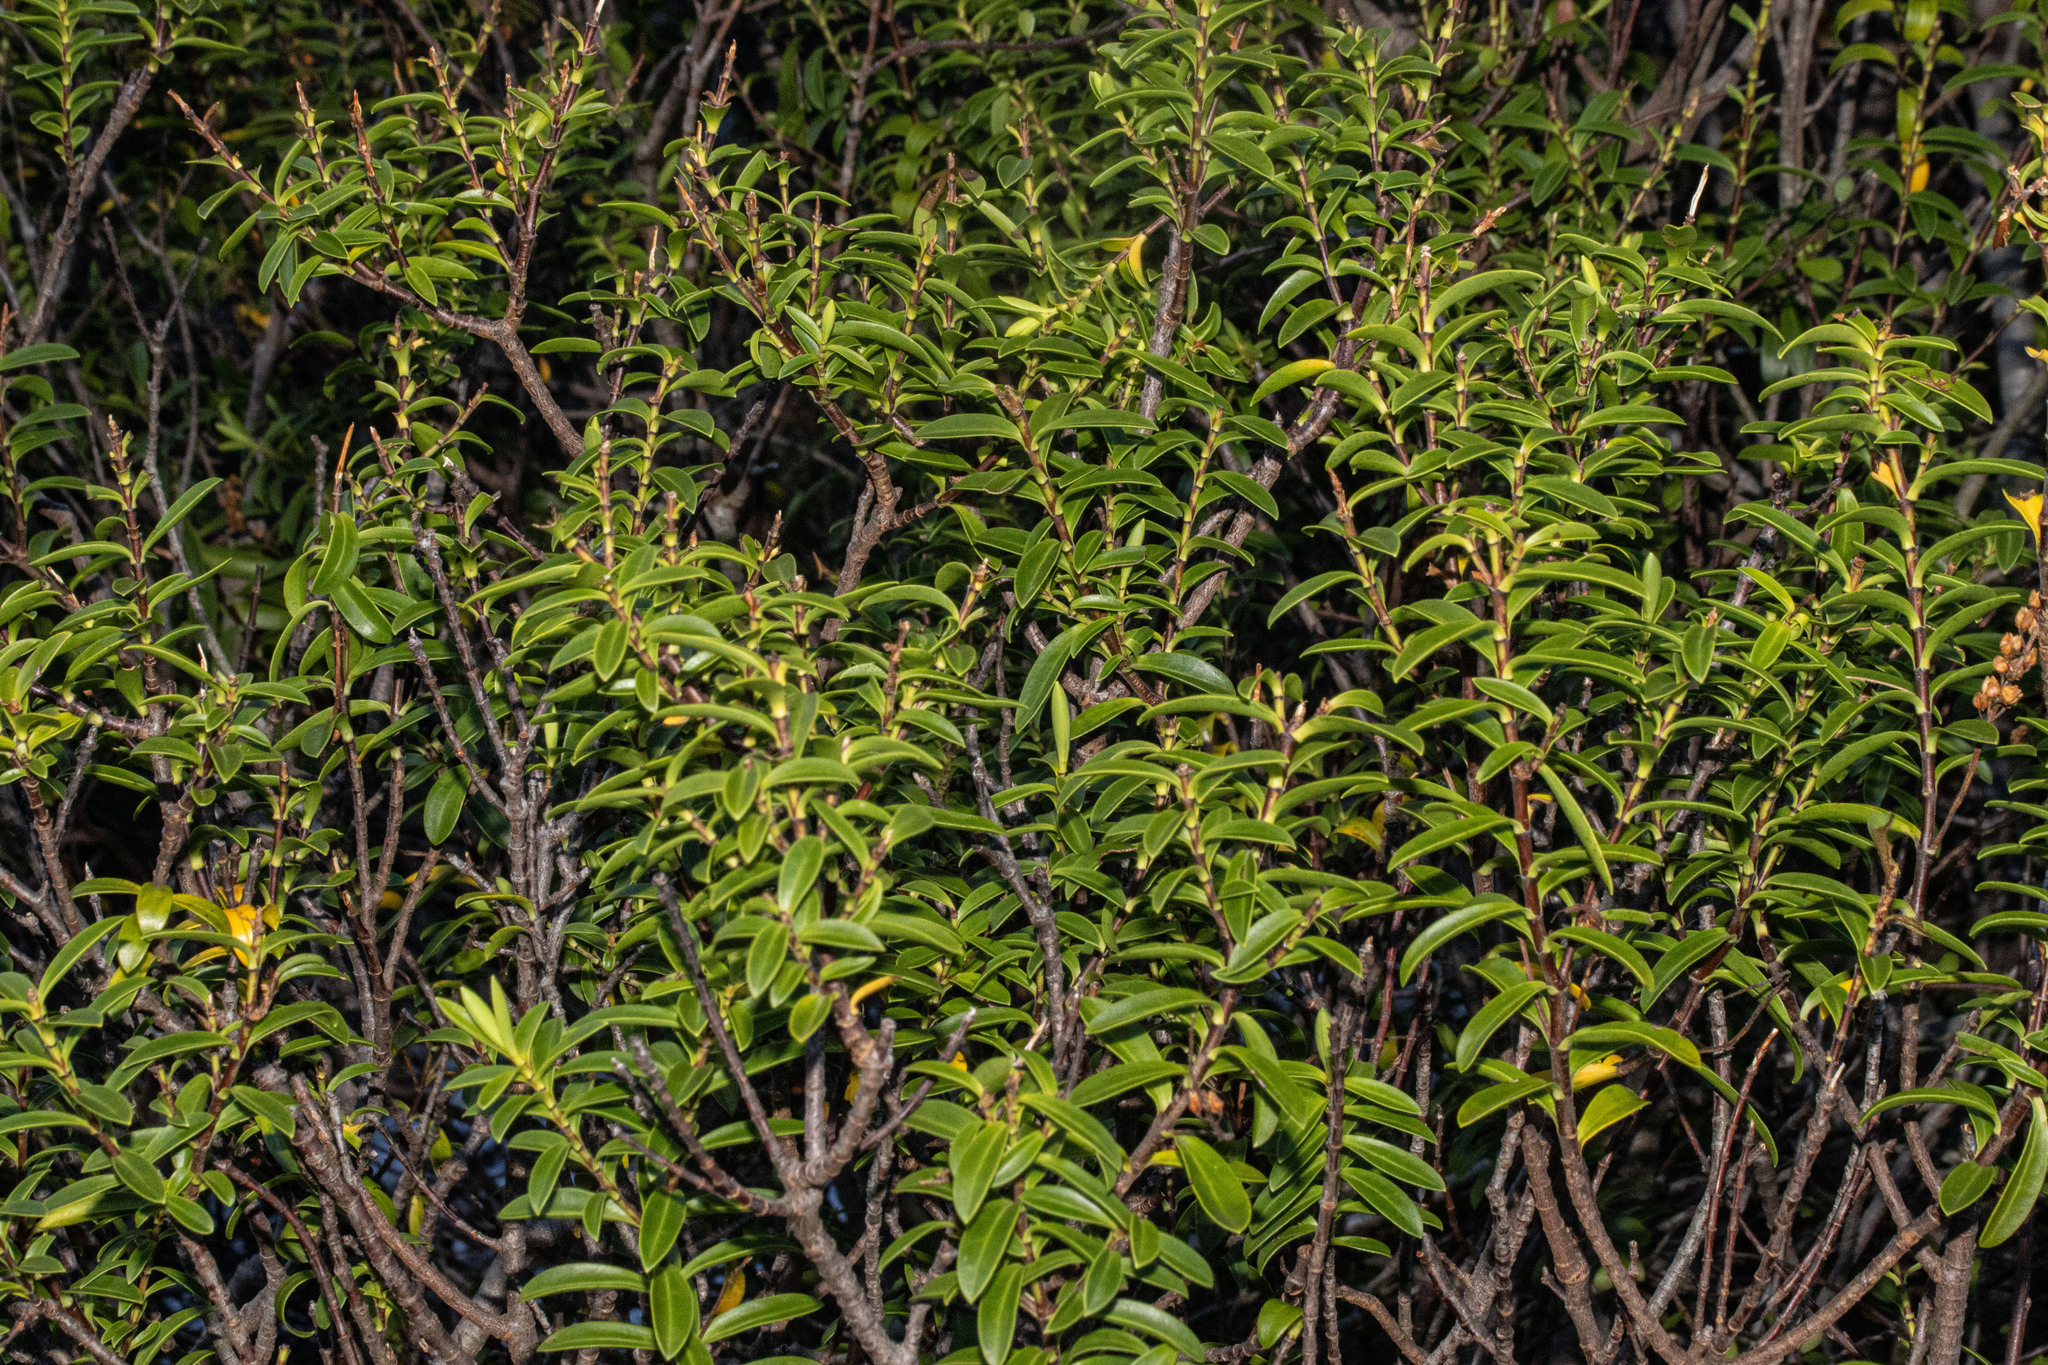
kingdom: Plantae
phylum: Tracheophyta
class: Magnoliopsida
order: Lamiales
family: Plantaginaceae
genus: Veronica
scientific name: Veronica rakaiensis
